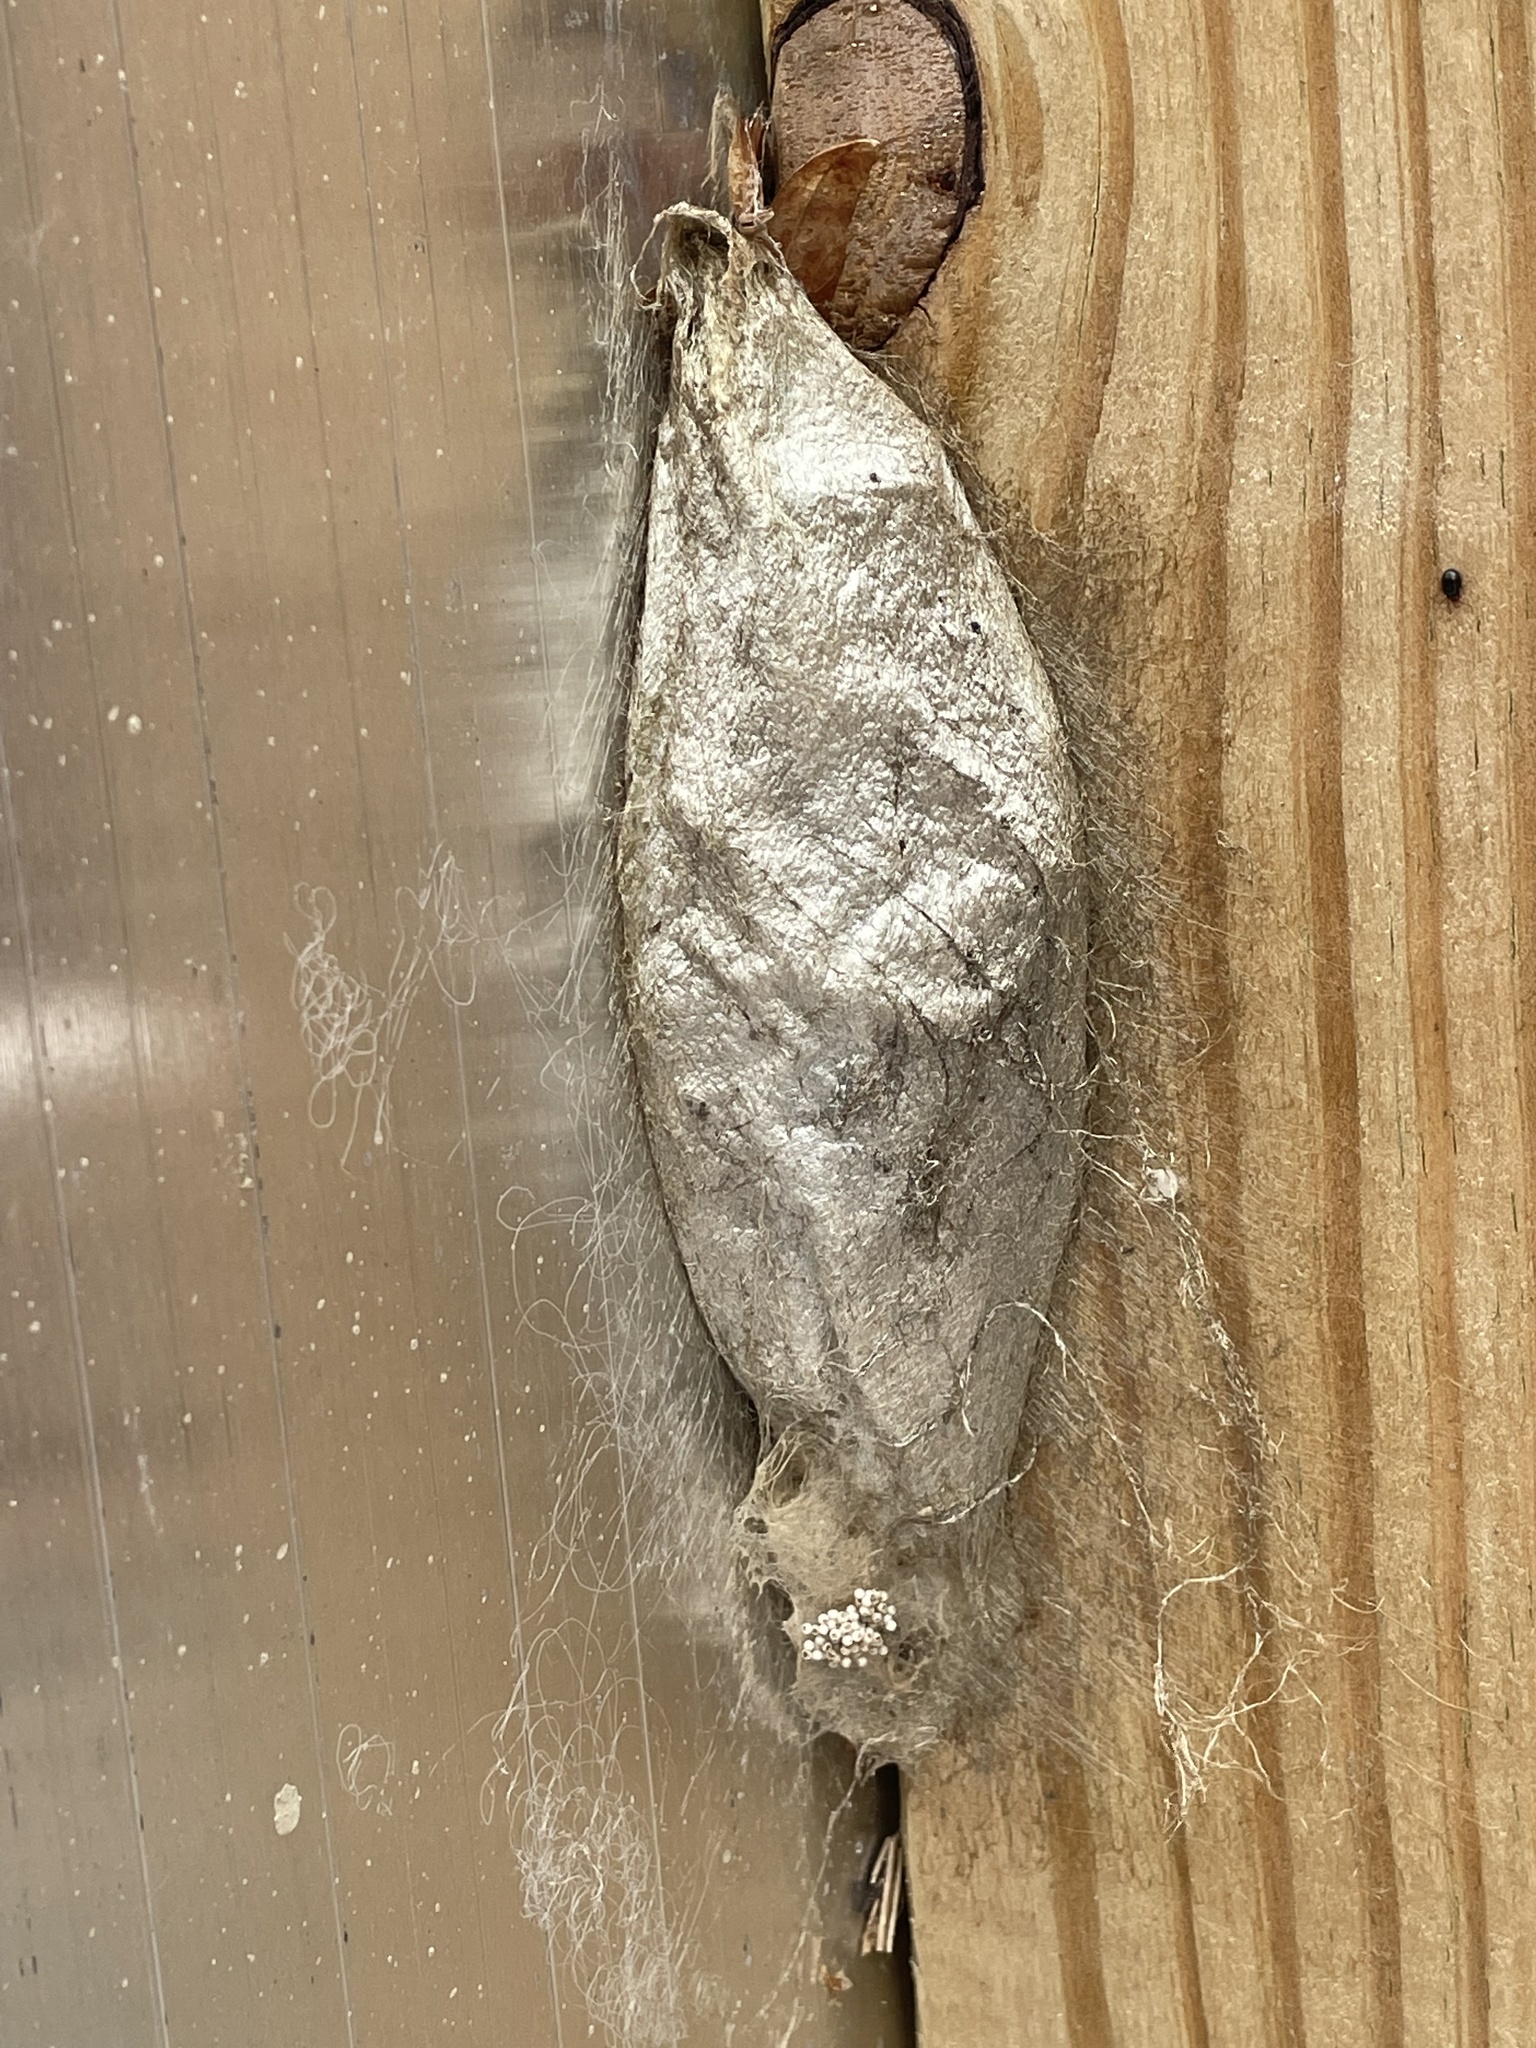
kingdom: Animalia
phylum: Arthropoda
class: Insecta
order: Lepidoptera
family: Saturniidae
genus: Hyalophora
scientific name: Hyalophora cecropia
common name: Cecropia silkmoth
